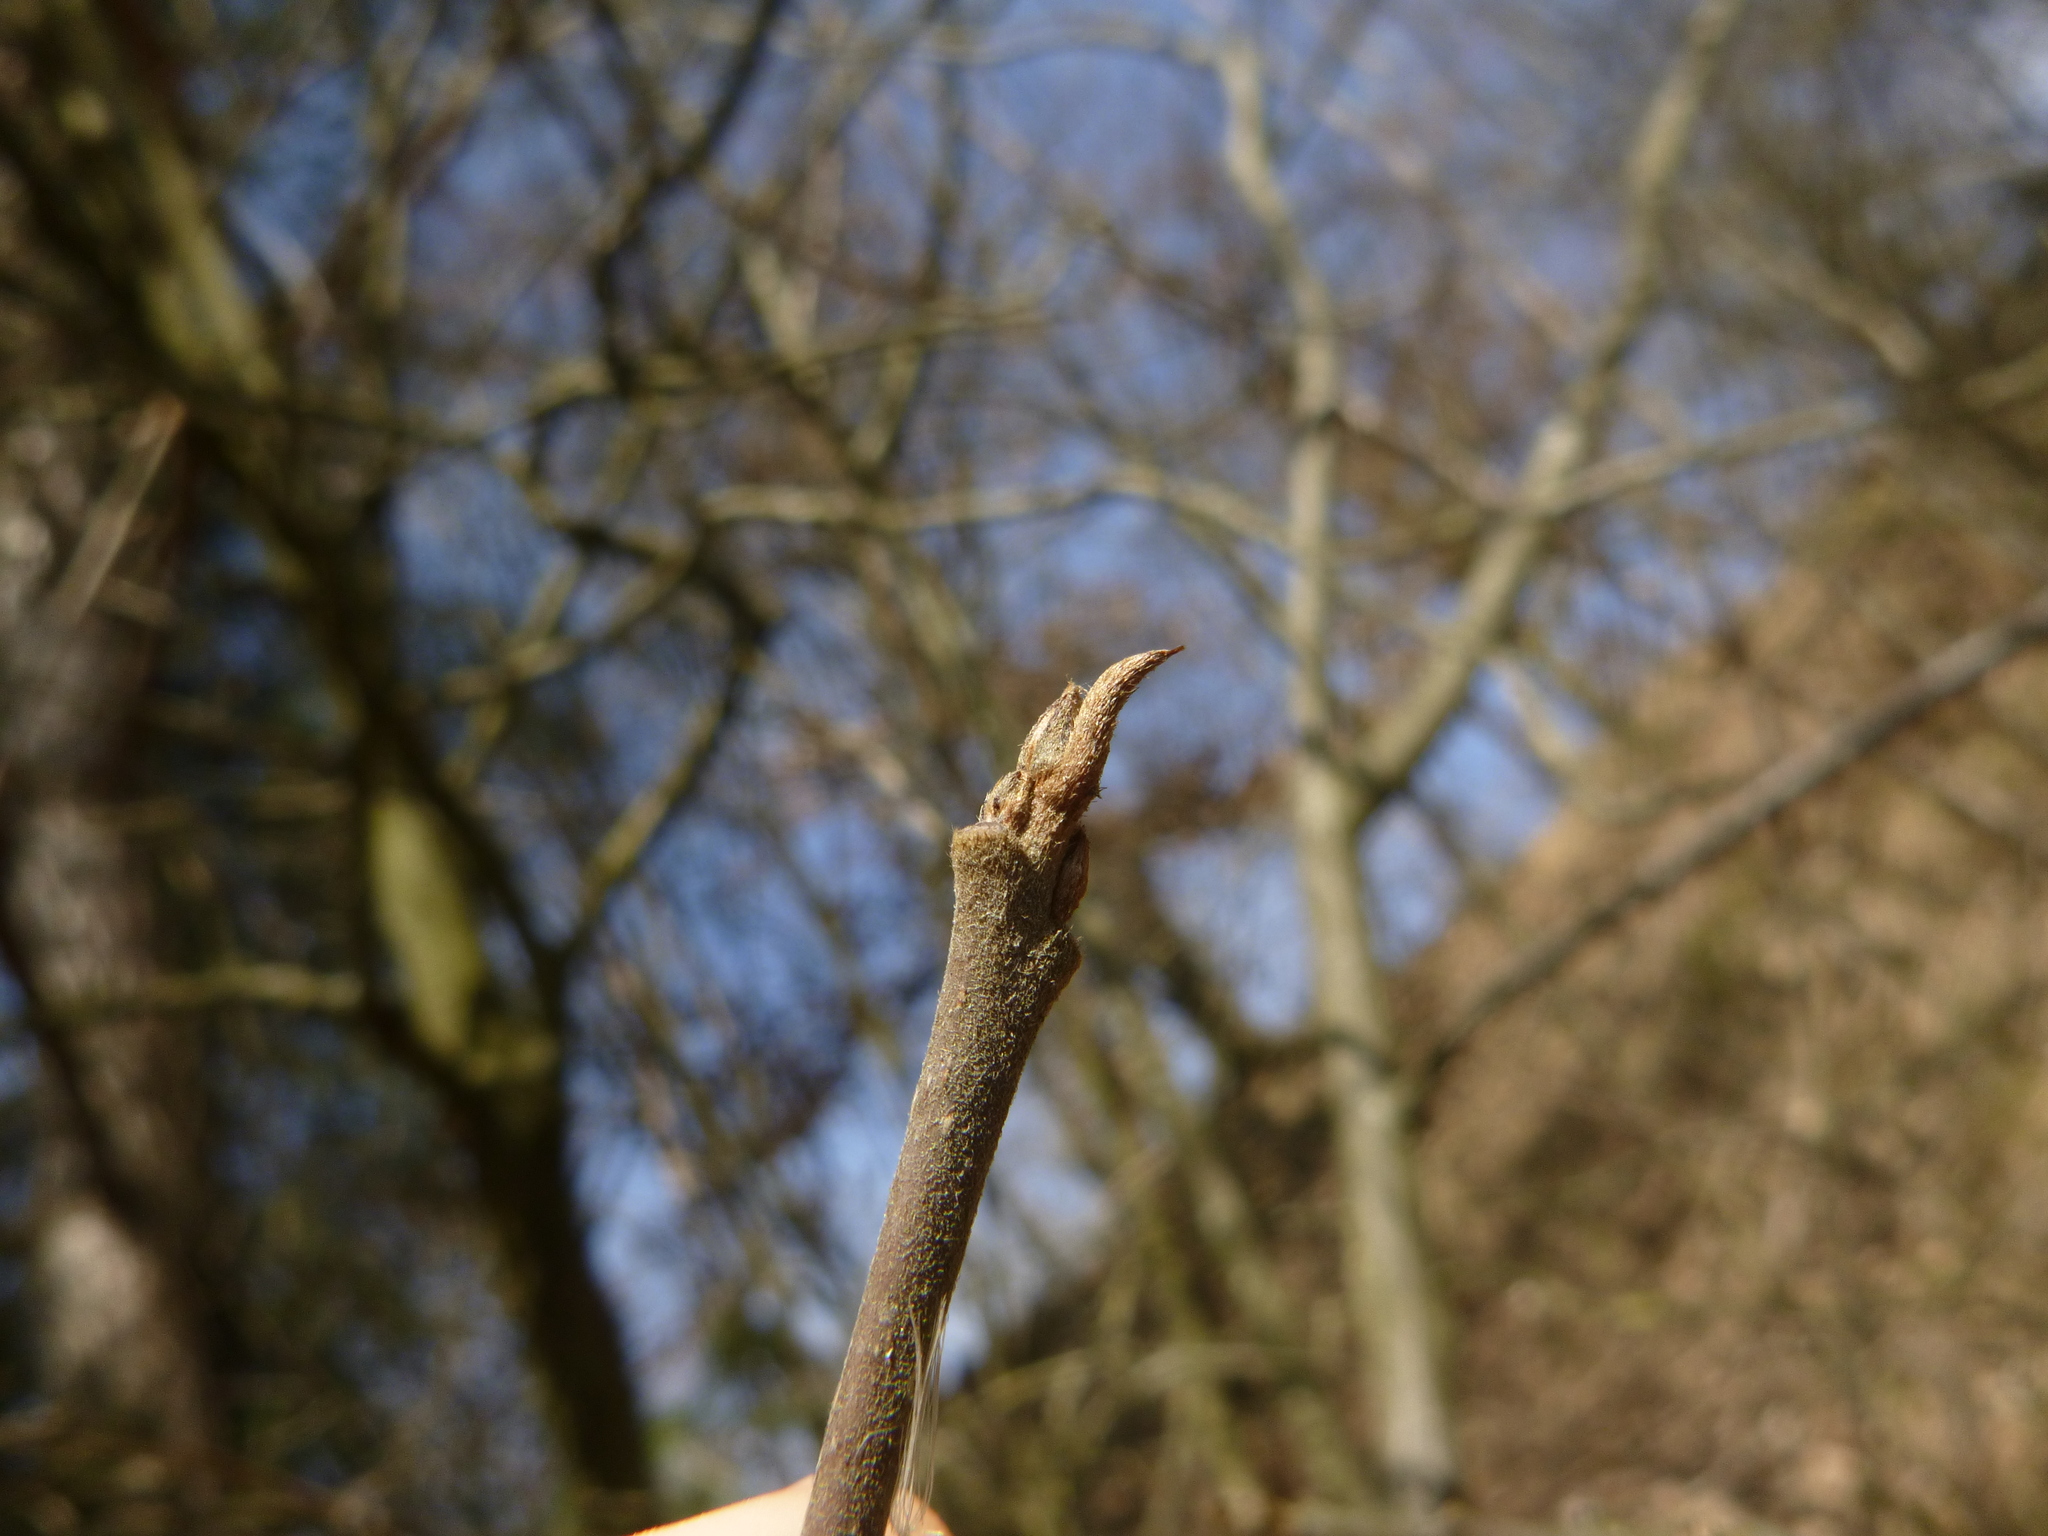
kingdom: Plantae
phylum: Tracheophyta
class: Magnoliopsida
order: Rosales
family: Rhamnaceae
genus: Frangula
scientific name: Frangula alnus
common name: Alder buckthorn
